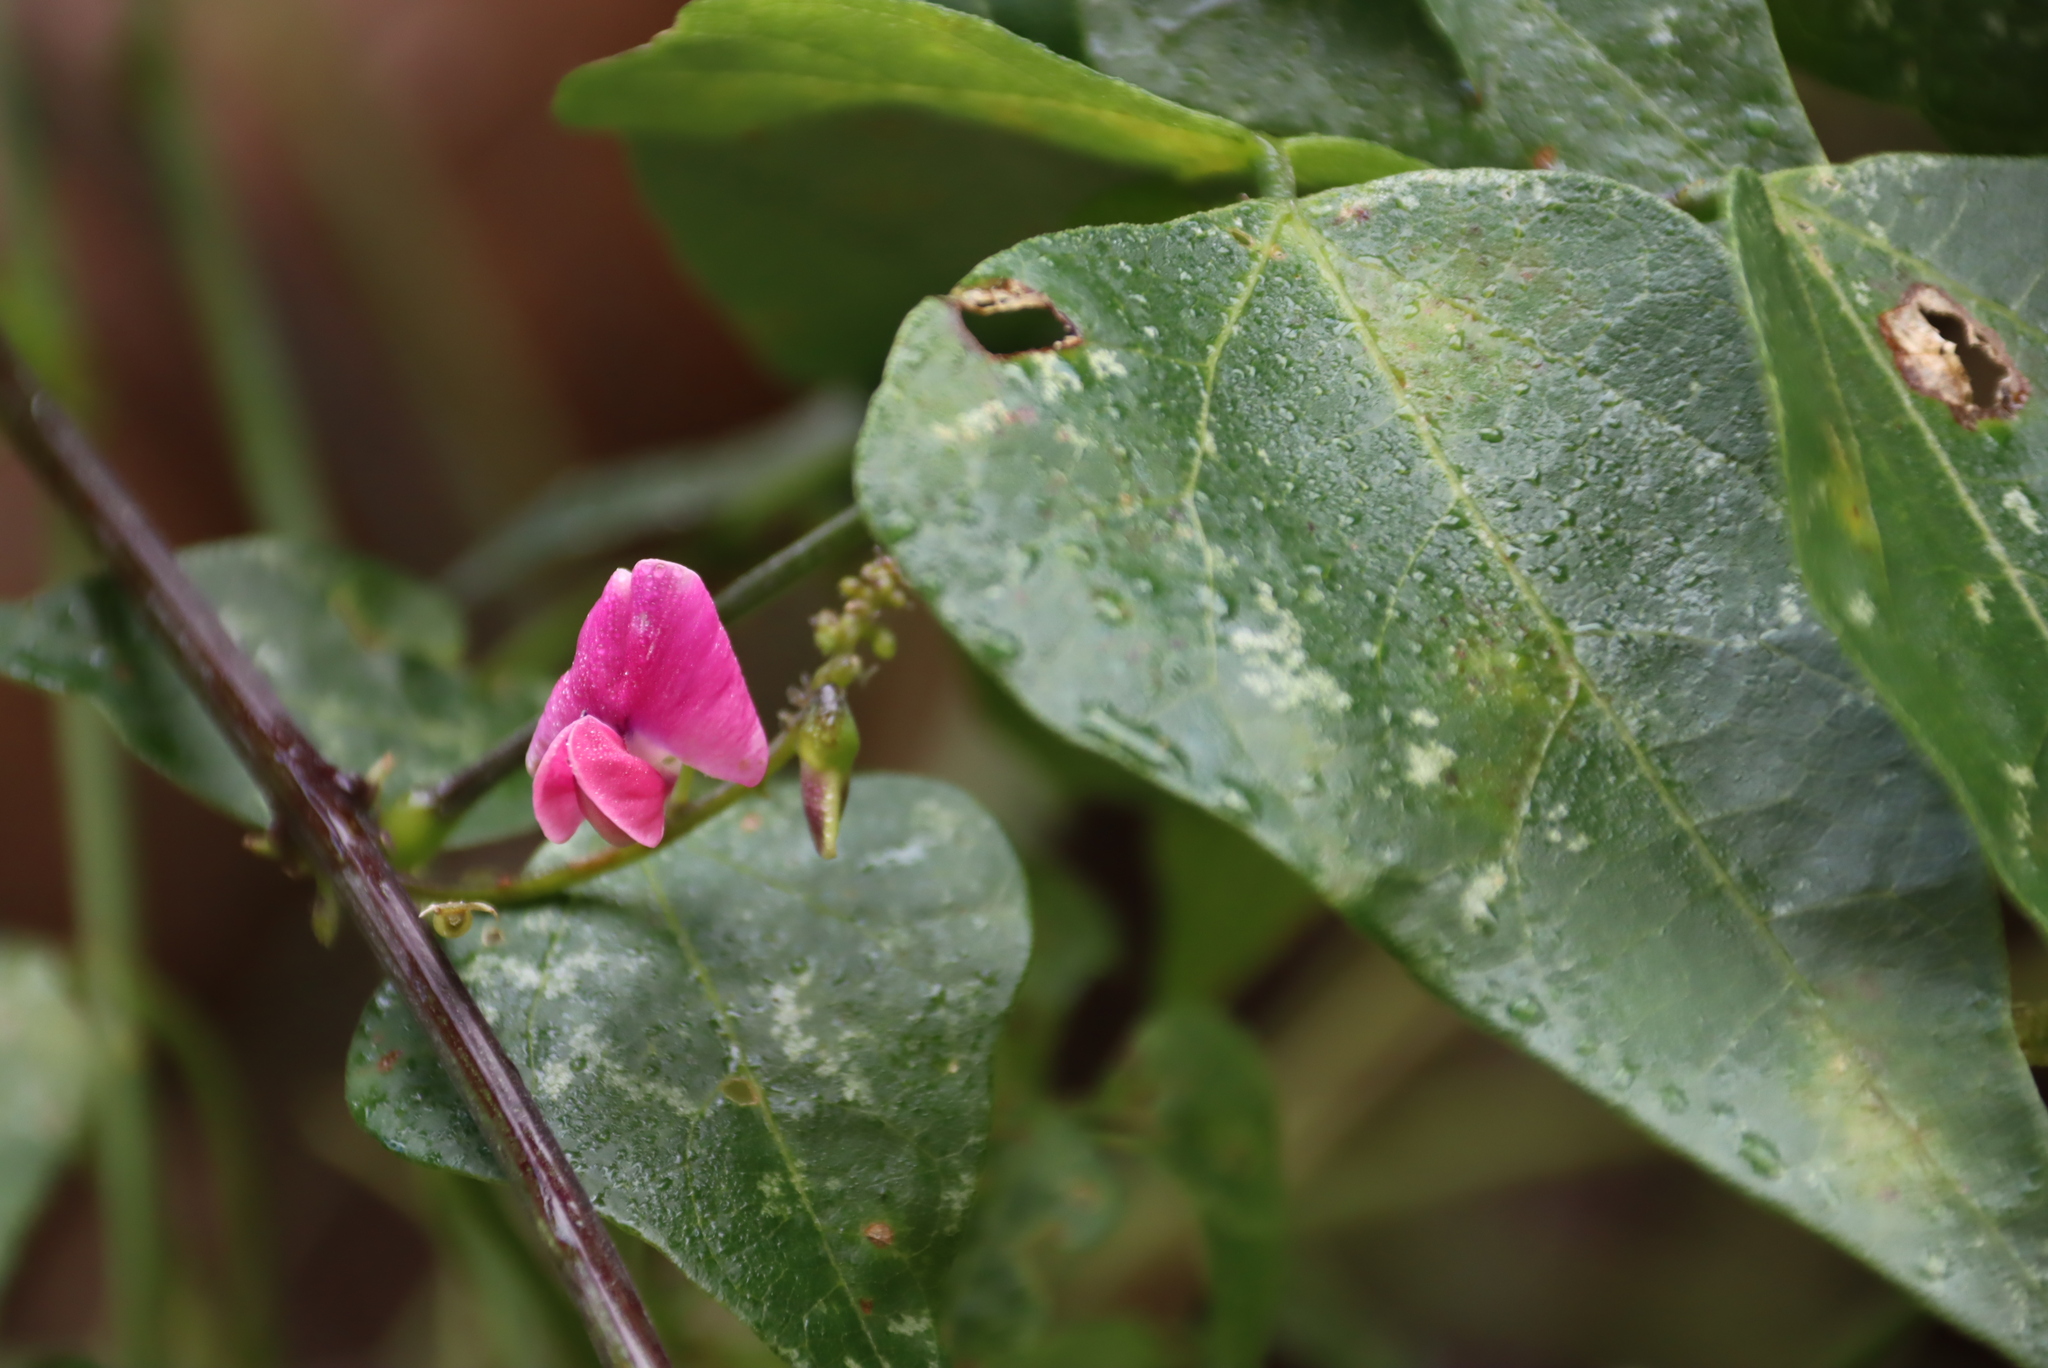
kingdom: Plantae
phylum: Tracheophyta
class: Magnoliopsida
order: Fabales
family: Fabaceae
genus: Dipogon
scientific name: Dipogon lignosus
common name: Okie bean
